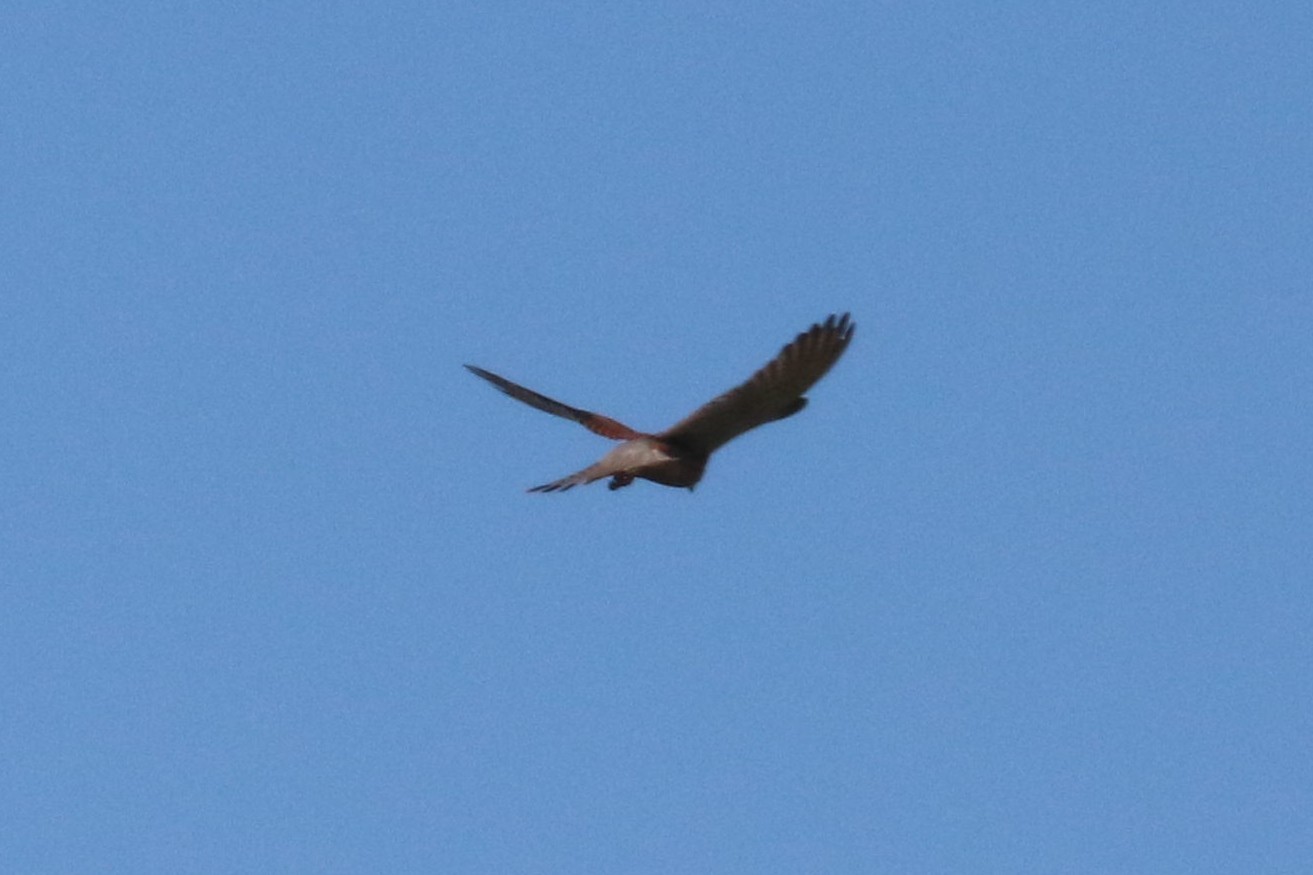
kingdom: Animalia
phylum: Chordata
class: Aves
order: Falconiformes
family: Falconidae
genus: Falco
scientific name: Falco tinnunculus
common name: Common kestrel
